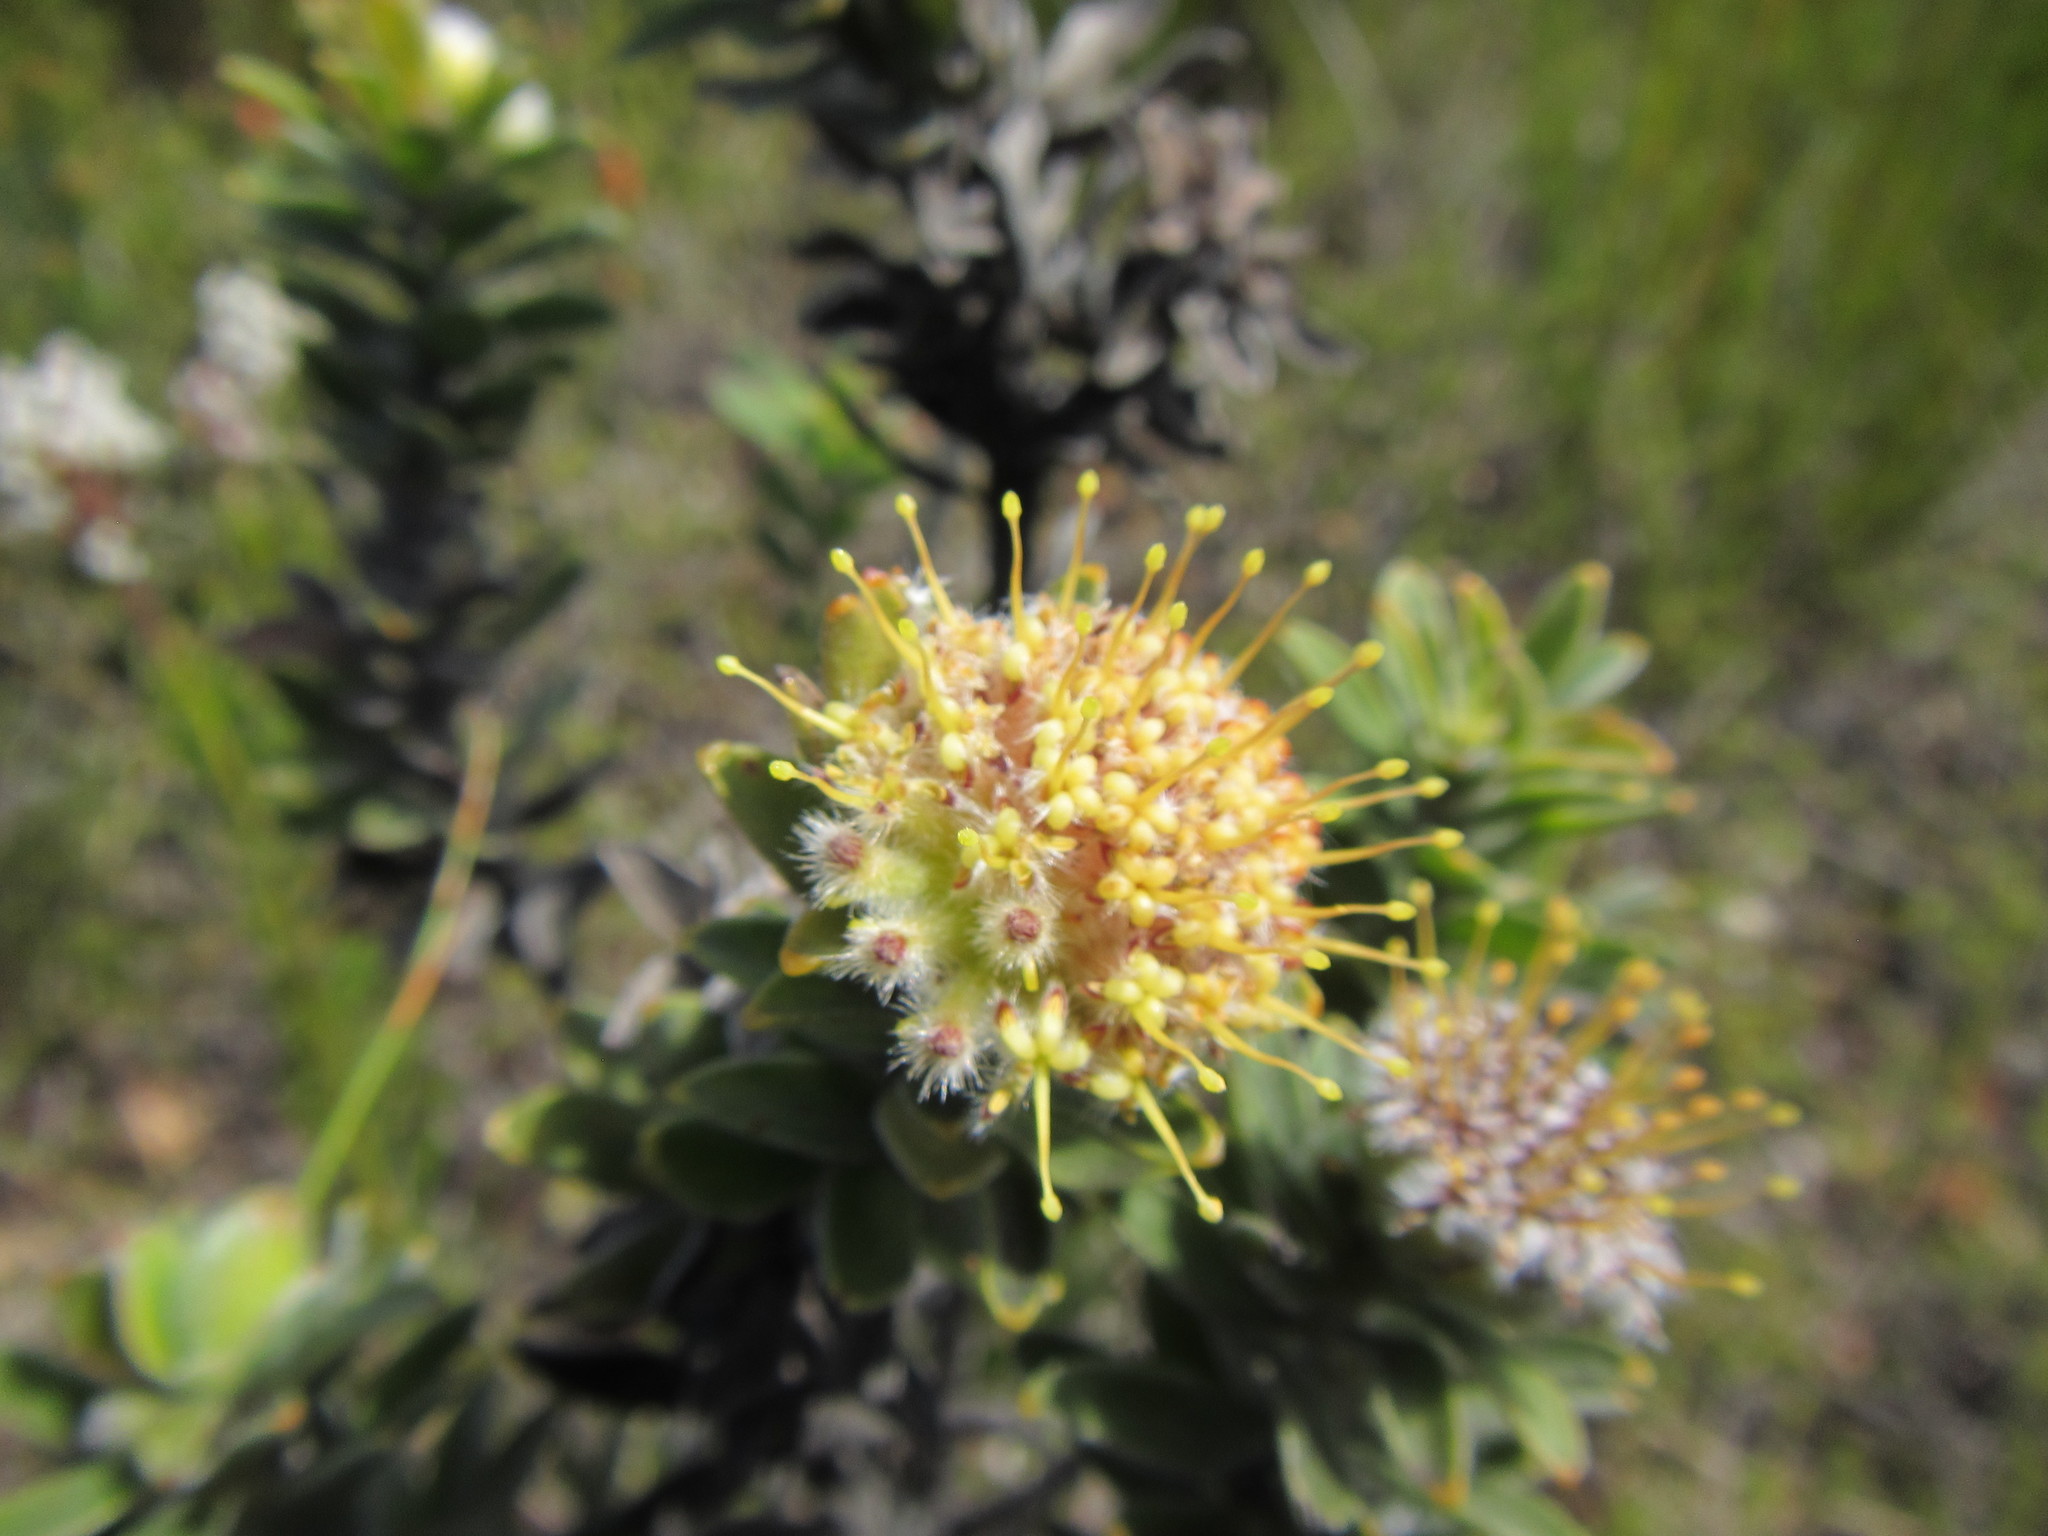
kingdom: Plantae
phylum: Tracheophyta
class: Magnoliopsida
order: Proteales
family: Proteaceae
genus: Leucospermum
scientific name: Leucospermum truncatulum
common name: Oval-leaf pincushion
